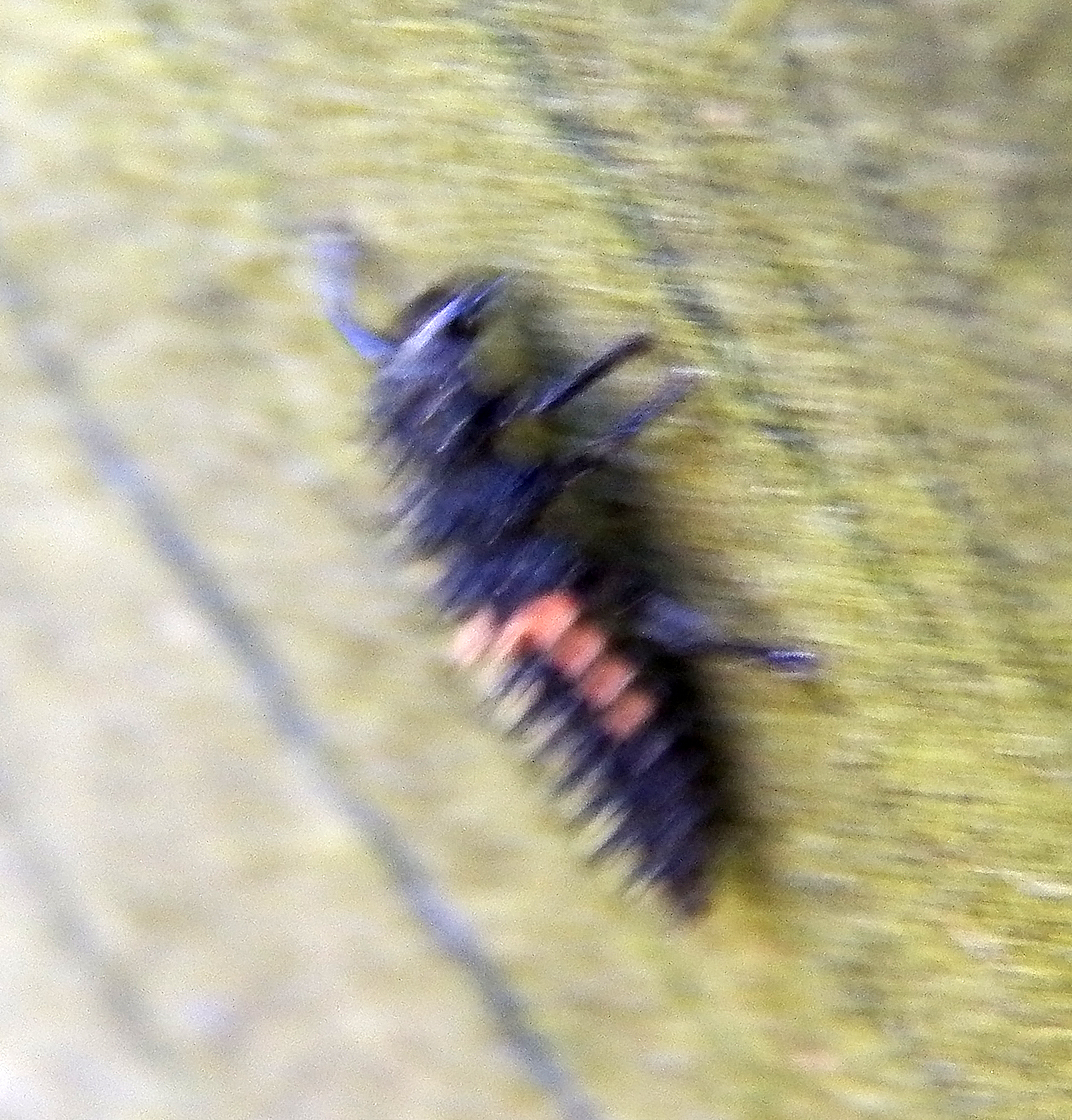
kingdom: Animalia
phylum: Arthropoda
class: Insecta
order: Coleoptera
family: Coccinellidae
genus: Harmonia
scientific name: Harmonia axyridis
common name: Harlequin ladybird
